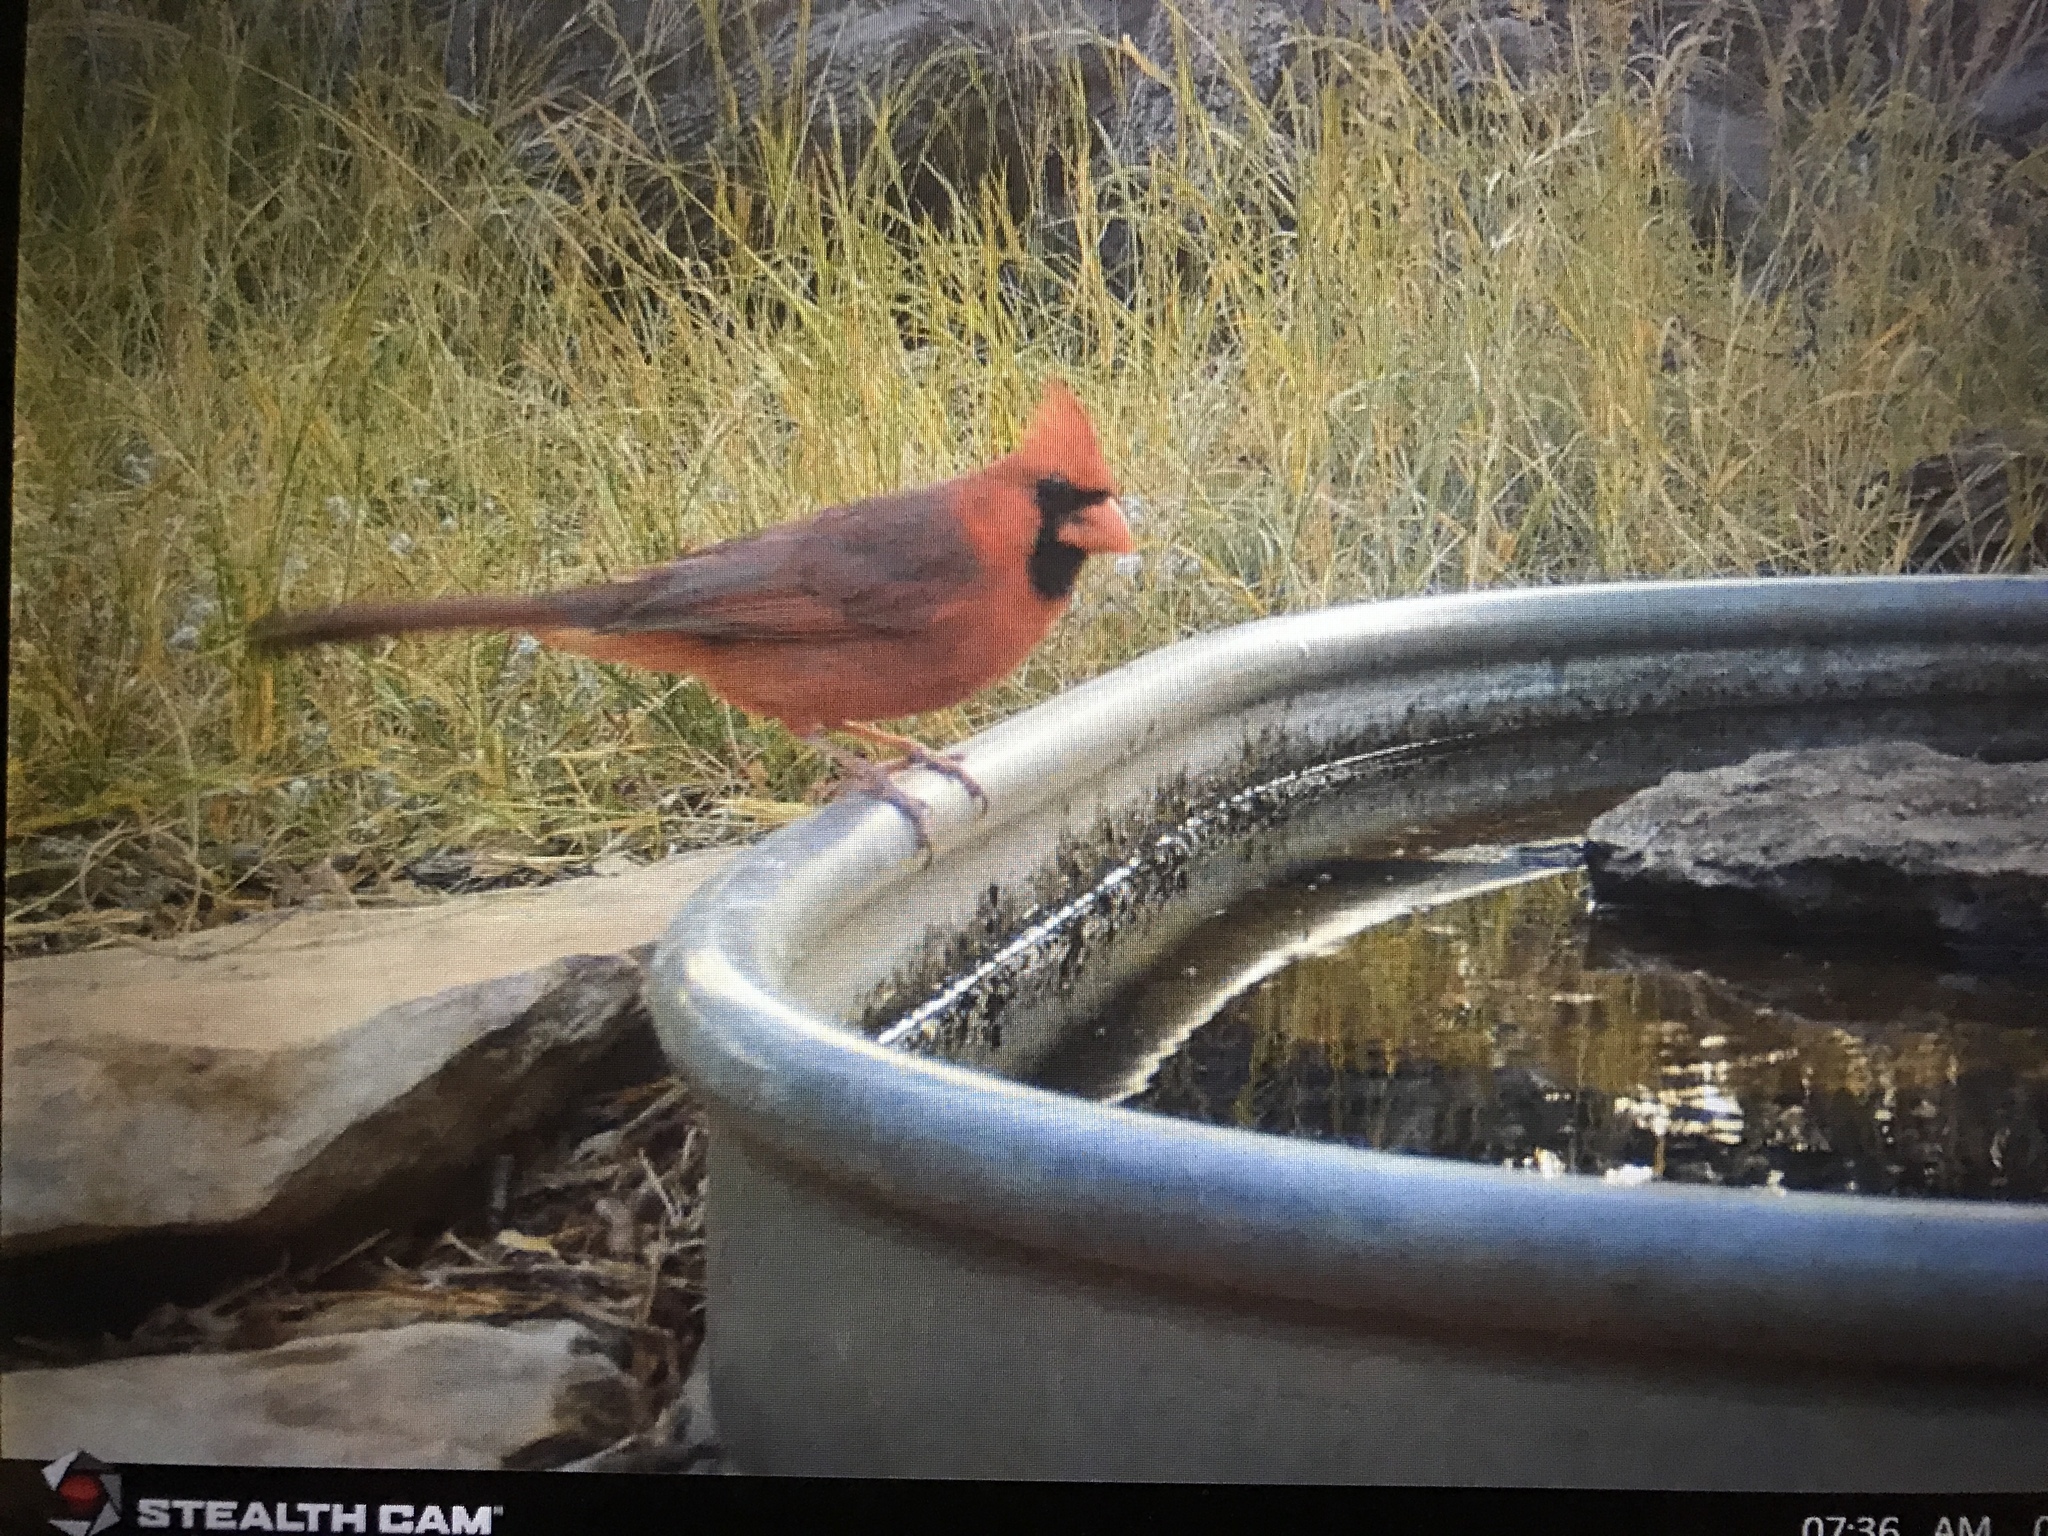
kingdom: Animalia
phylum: Chordata
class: Aves
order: Passeriformes
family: Cardinalidae
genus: Cardinalis
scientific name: Cardinalis cardinalis
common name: Northern cardinal
